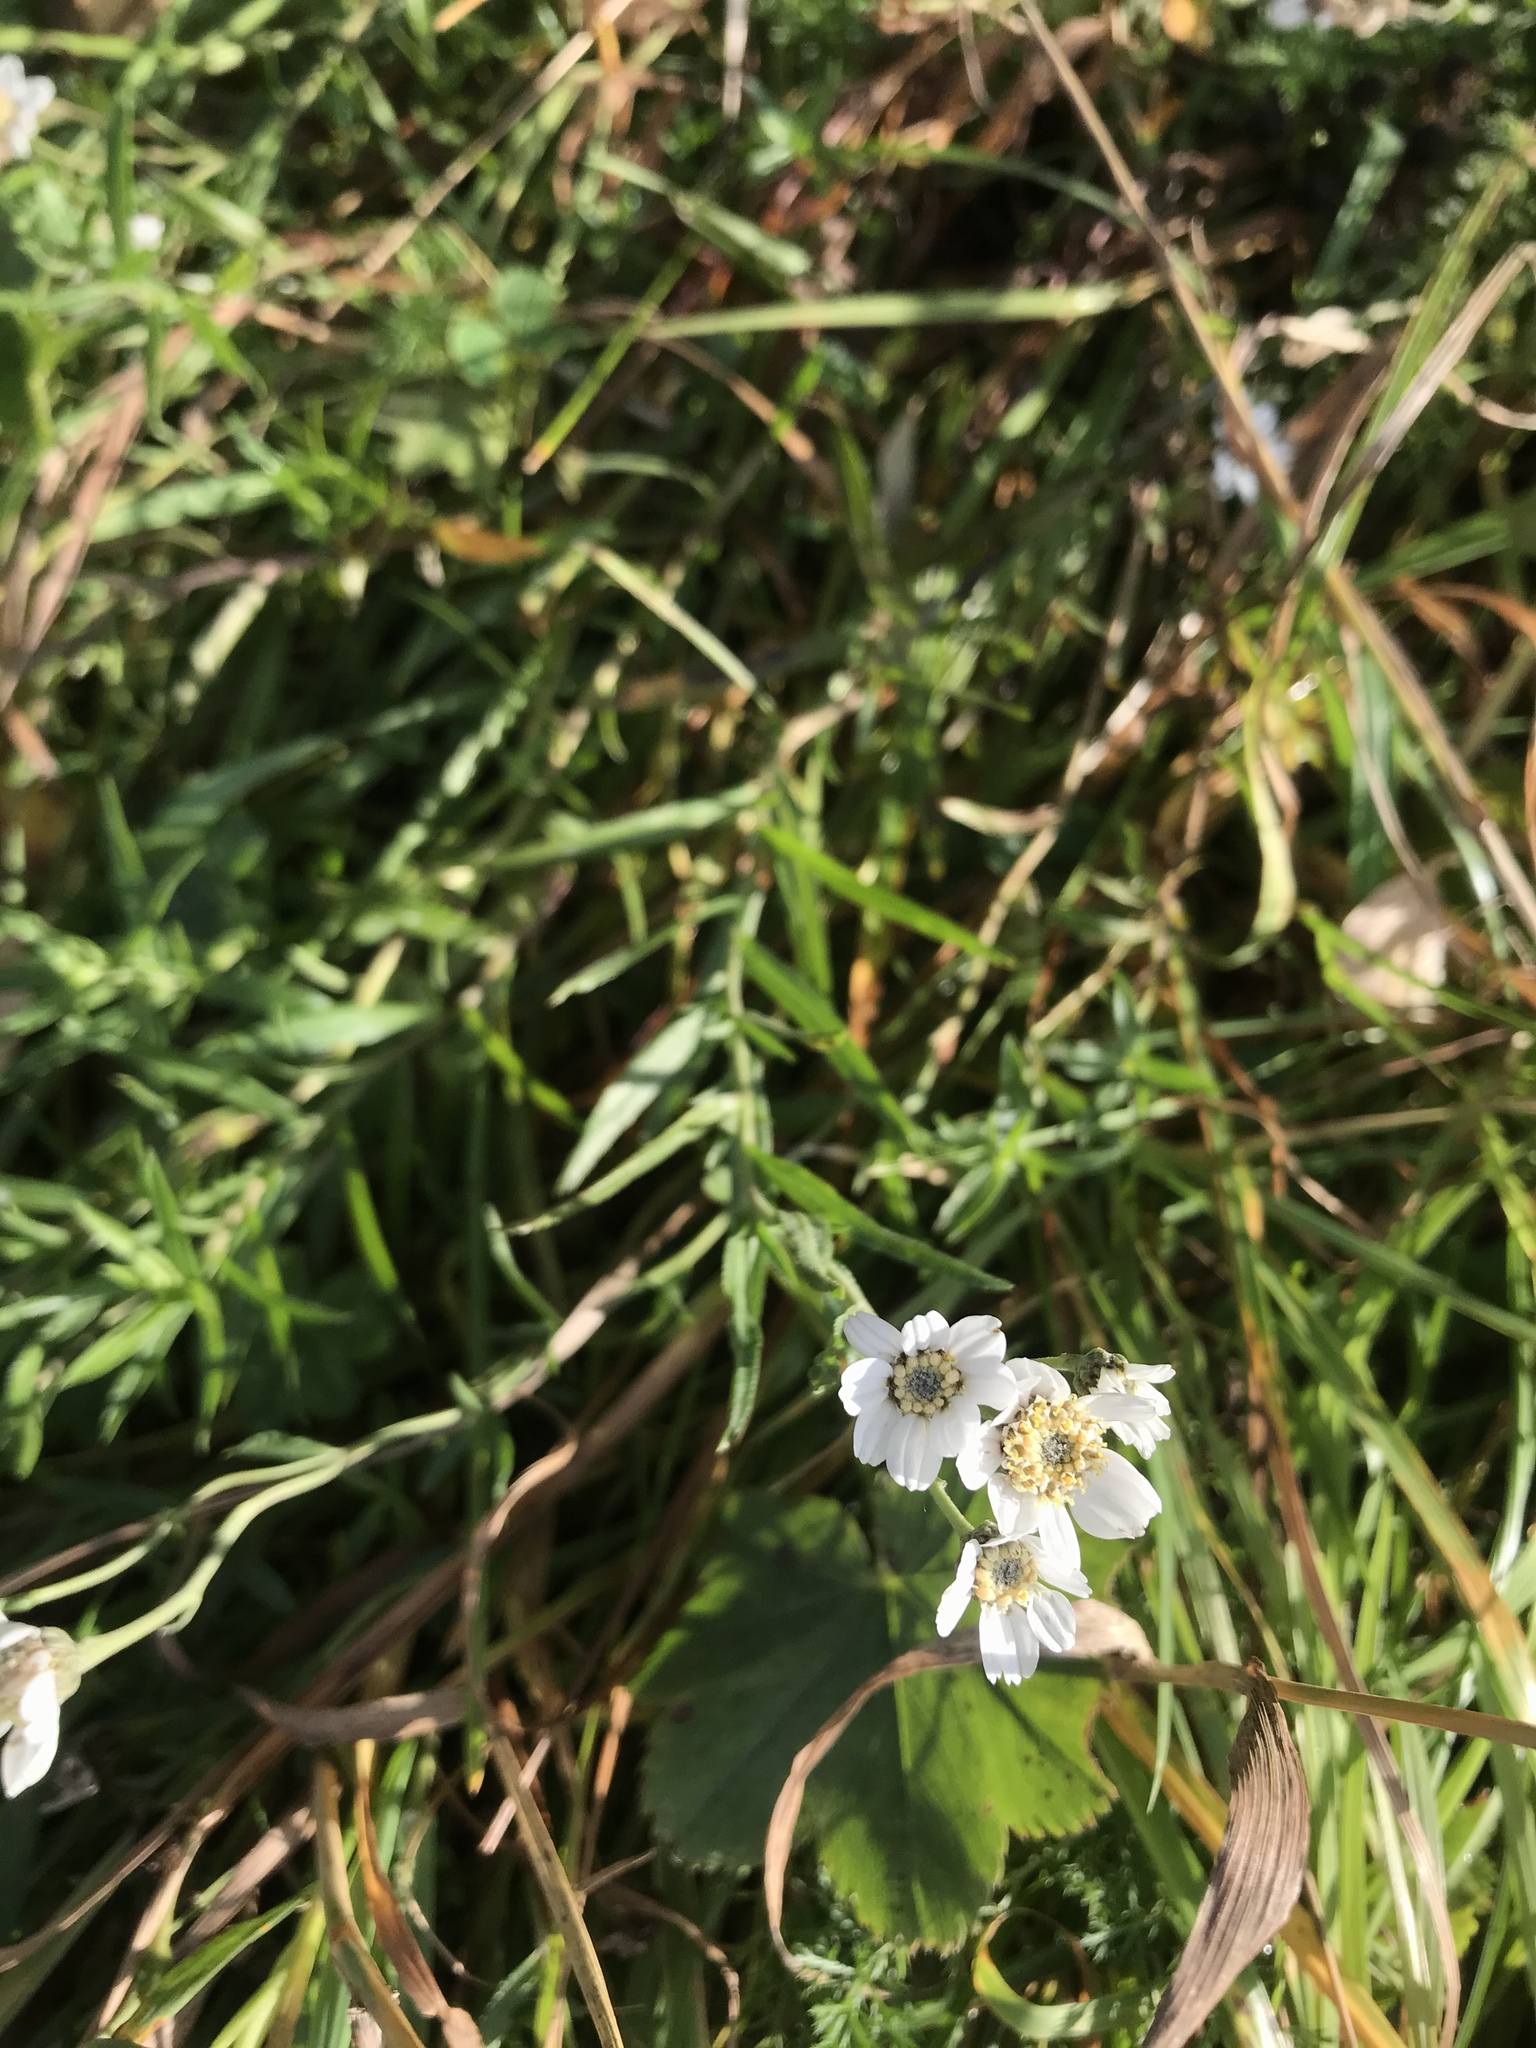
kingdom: Plantae
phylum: Tracheophyta
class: Magnoliopsida
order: Asterales
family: Asteraceae
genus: Achillea
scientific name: Achillea ptarmica
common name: Sneezeweed
